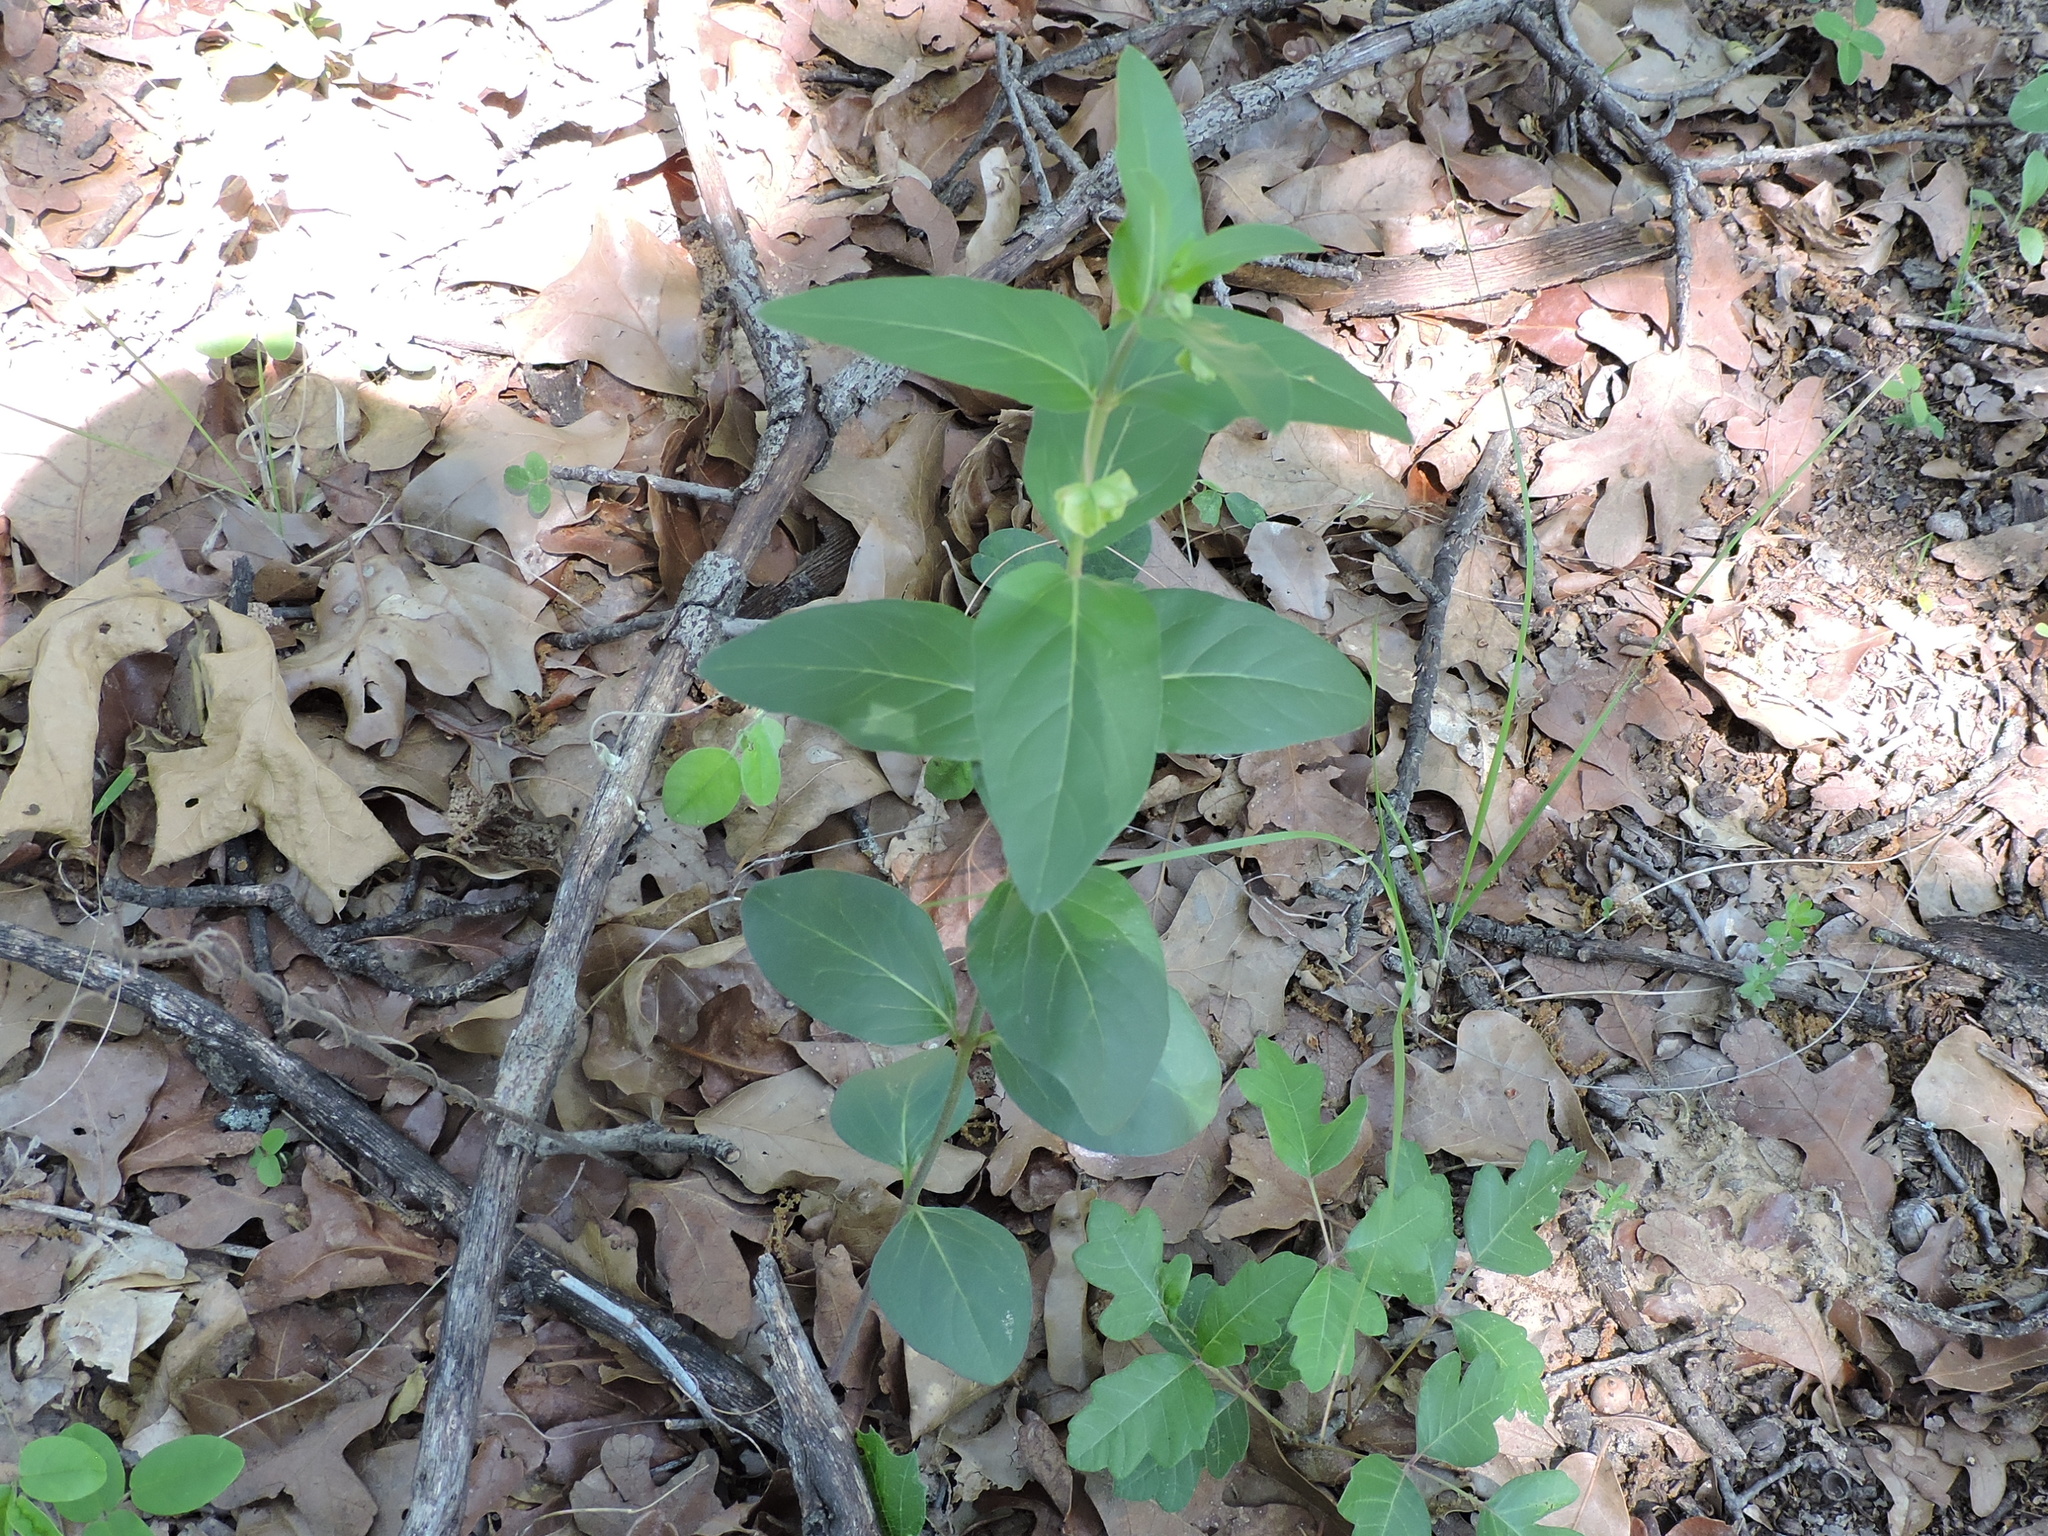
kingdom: Plantae
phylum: Tracheophyta
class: Magnoliopsida
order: Caryophyllales
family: Nyctaginaceae
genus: Mirabilis
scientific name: Mirabilis gigantea
